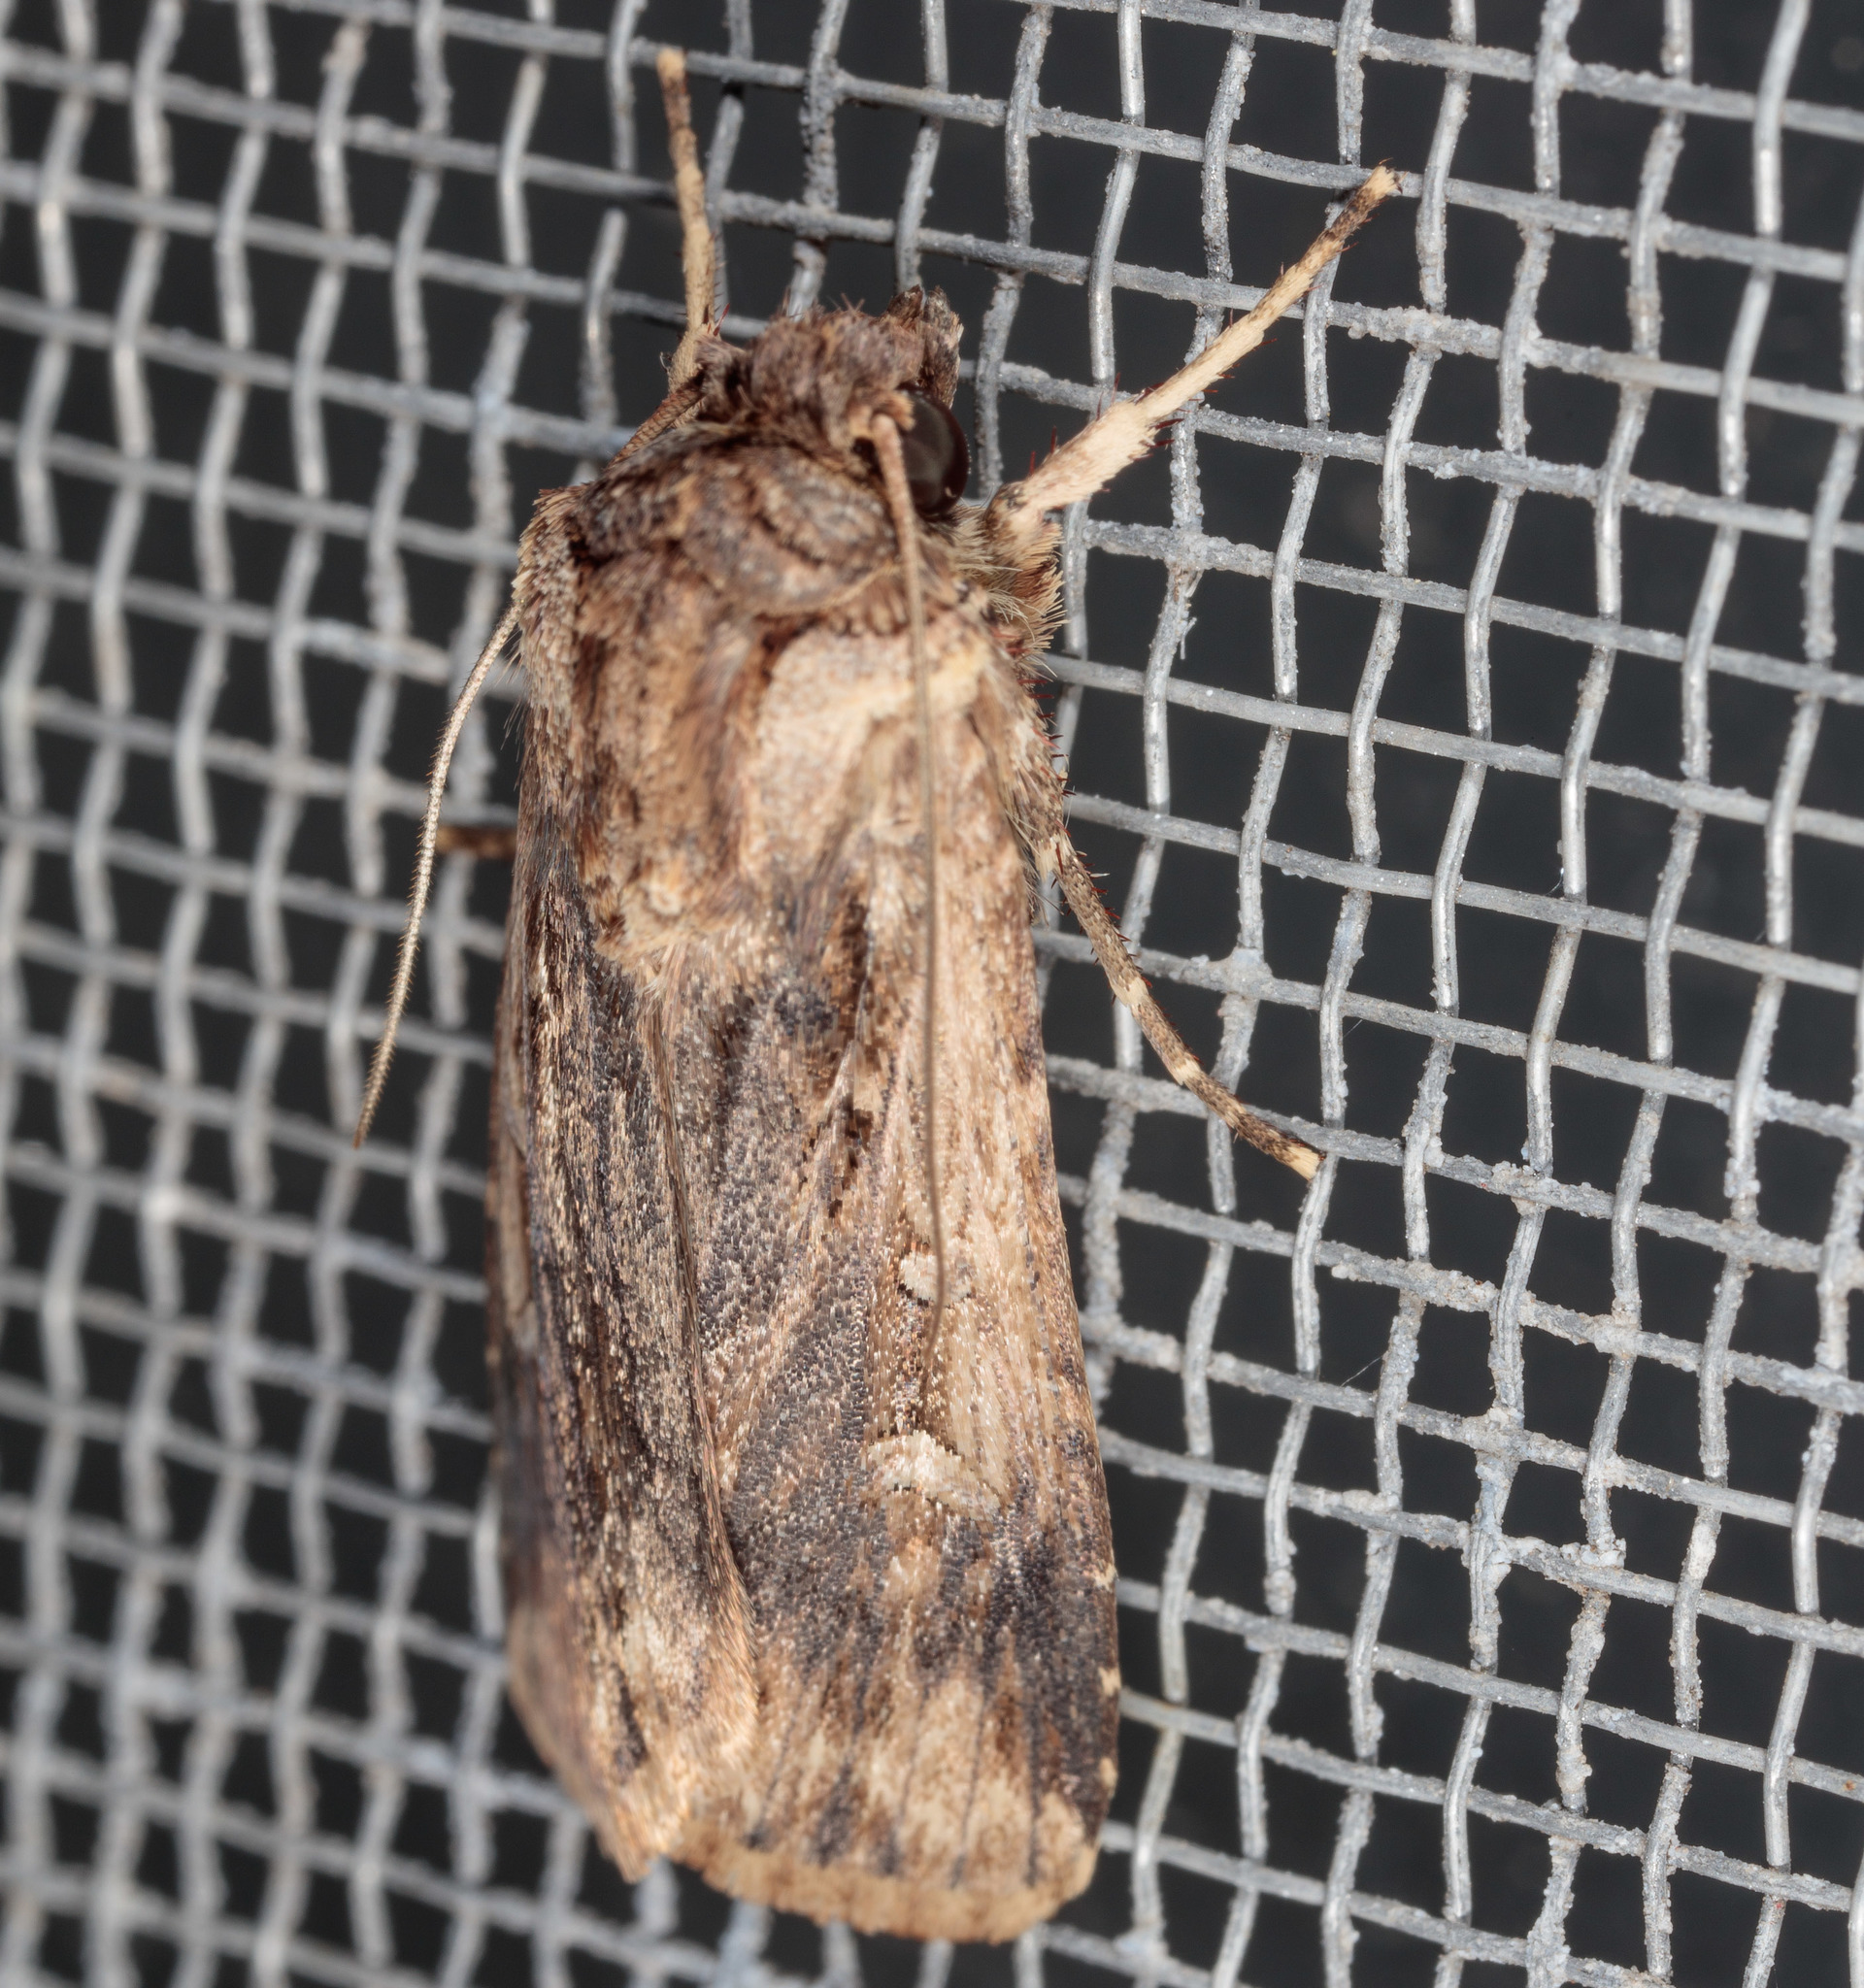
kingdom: Animalia
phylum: Arthropoda
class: Insecta
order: Lepidoptera
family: Noctuidae
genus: Feltia
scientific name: Feltia subterranea
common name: Granulate cutworm
